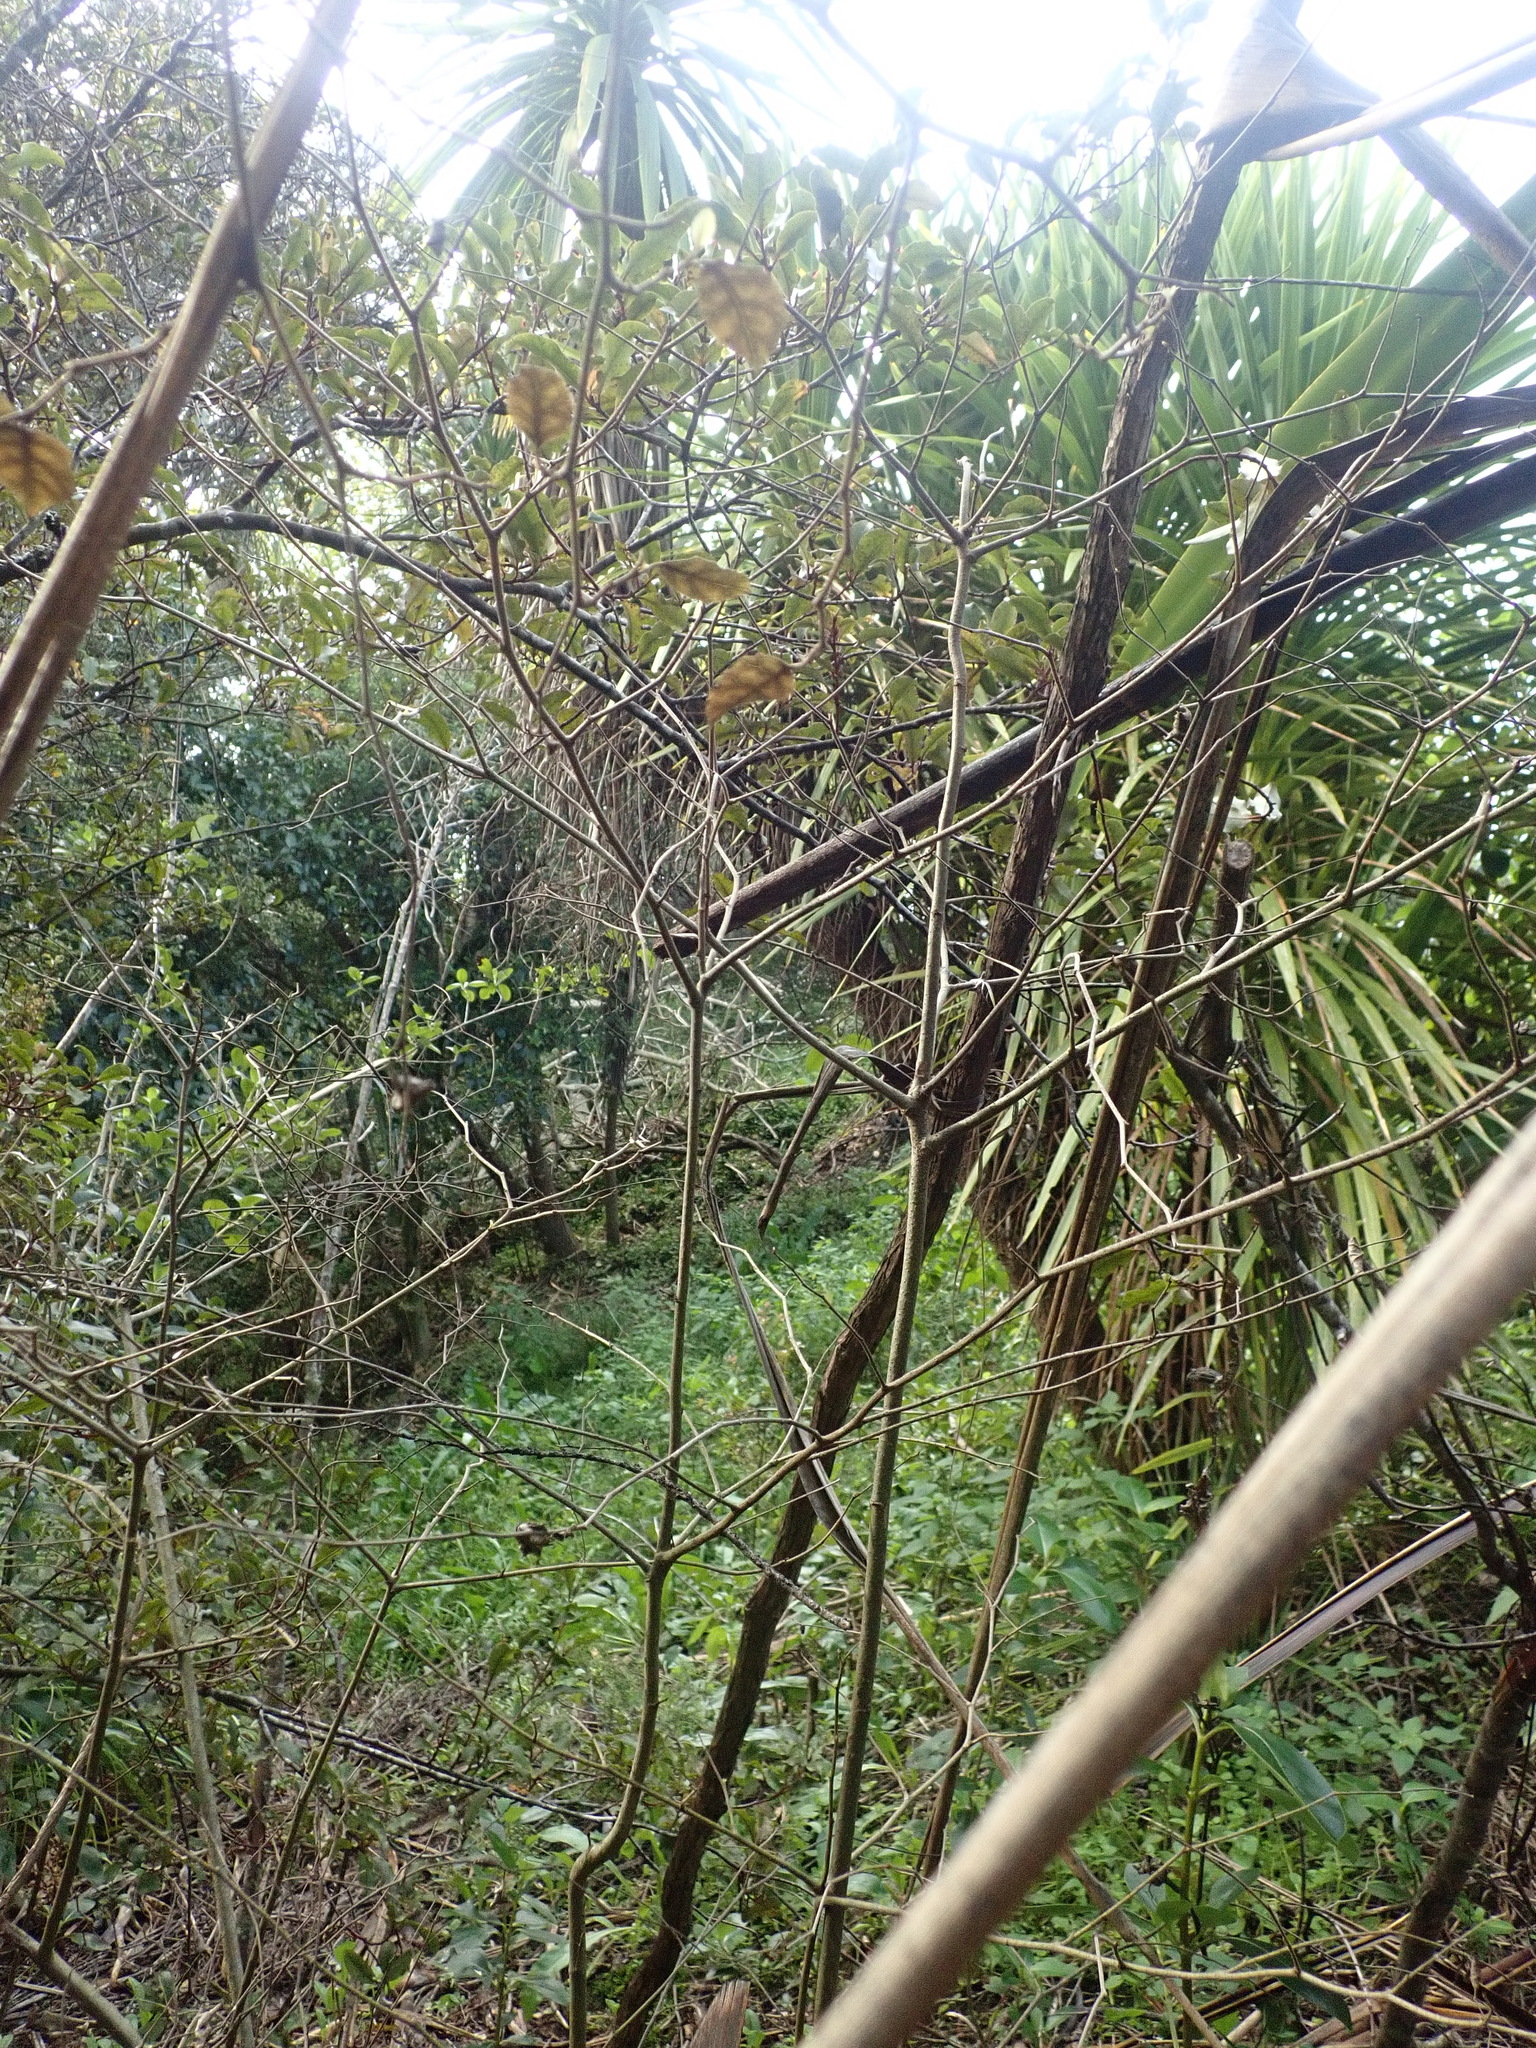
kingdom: Plantae
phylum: Tracheophyta
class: Magnoliopsida
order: Asterales
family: Rousseaceae
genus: Carpodetus
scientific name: Carpodetus serratus
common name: White mapau
